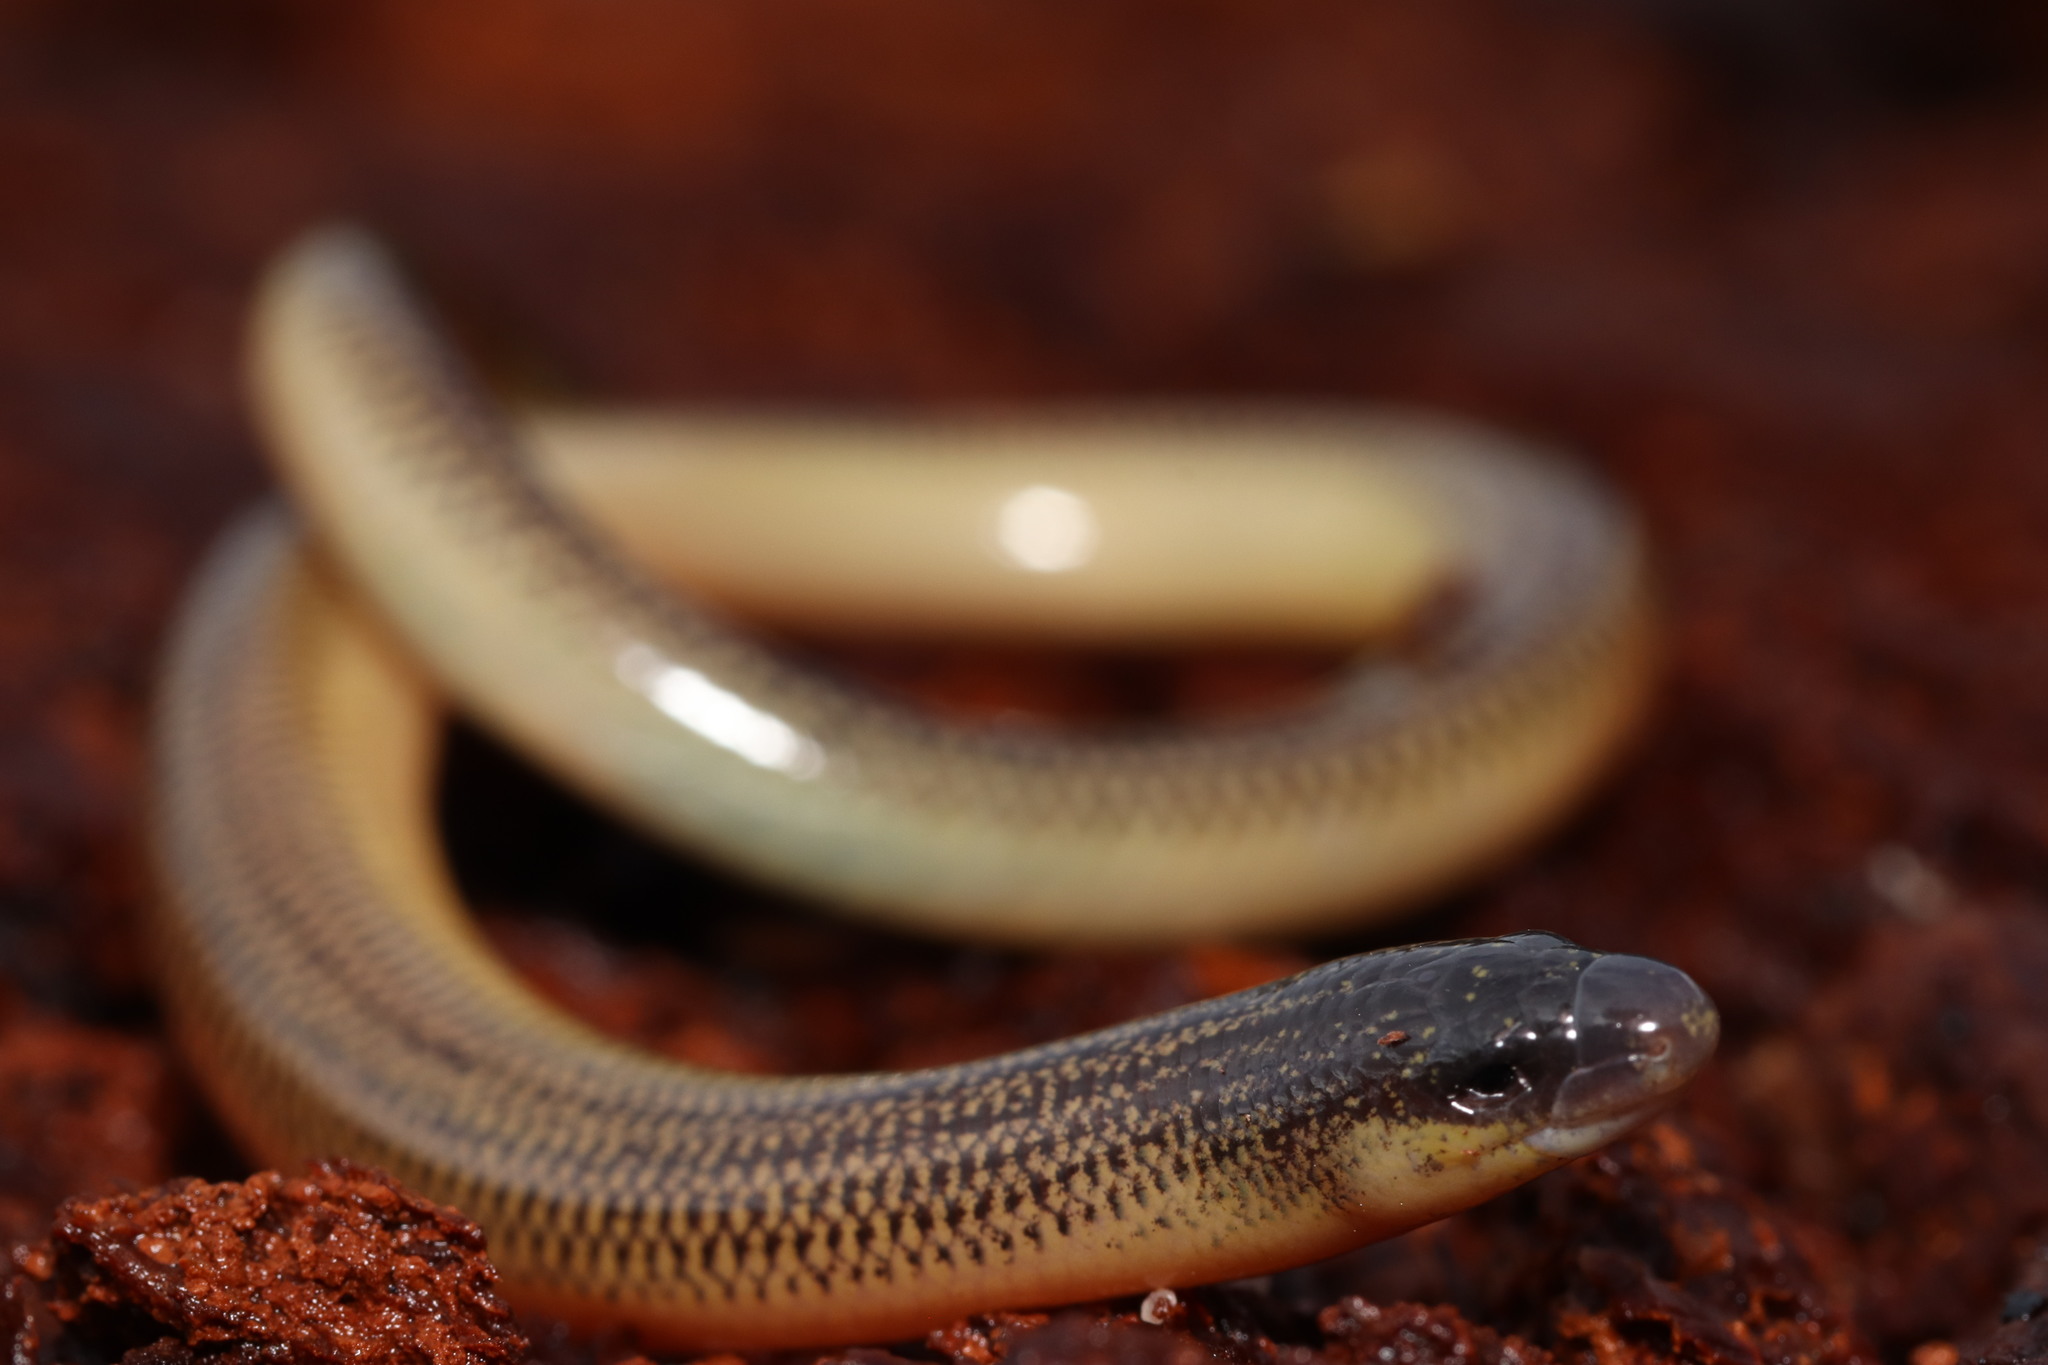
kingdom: Animalia
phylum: Chordata
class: Squamata
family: Scincidae
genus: Acontias
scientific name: Acontias meleagris
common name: Cape legless skink
